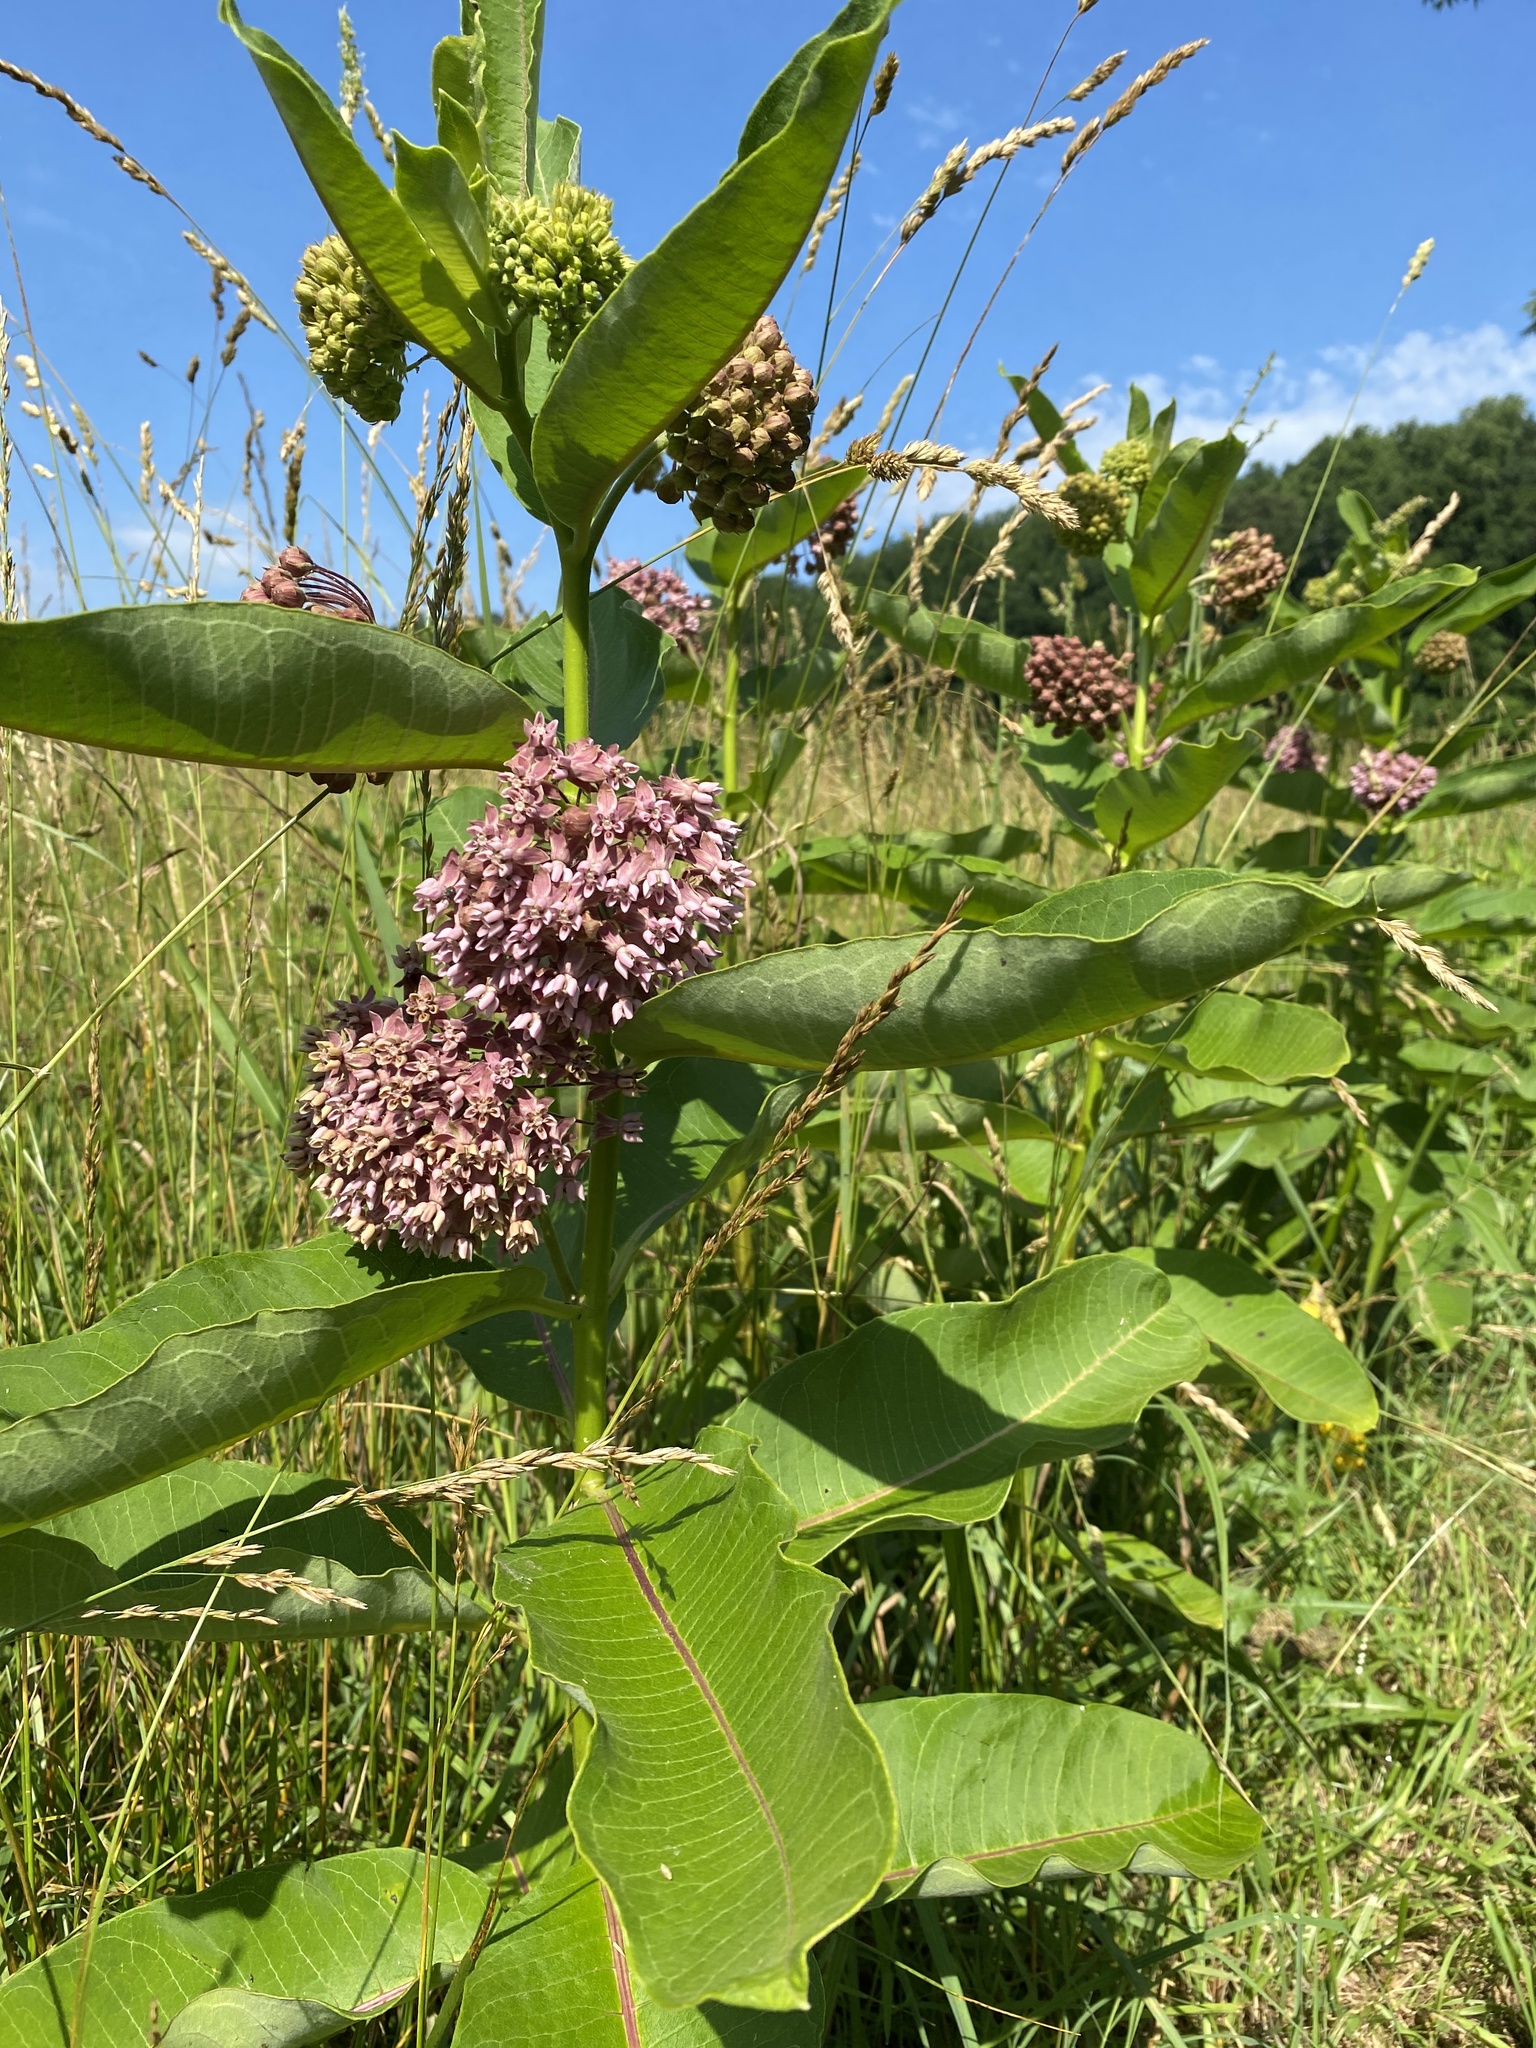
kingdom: Plantae
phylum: Tracheophyta
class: Magnoliopsida
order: Gentianales
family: Apocynaceae
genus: Asclepias
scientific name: Asclepias syriaca
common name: Common milkweed
